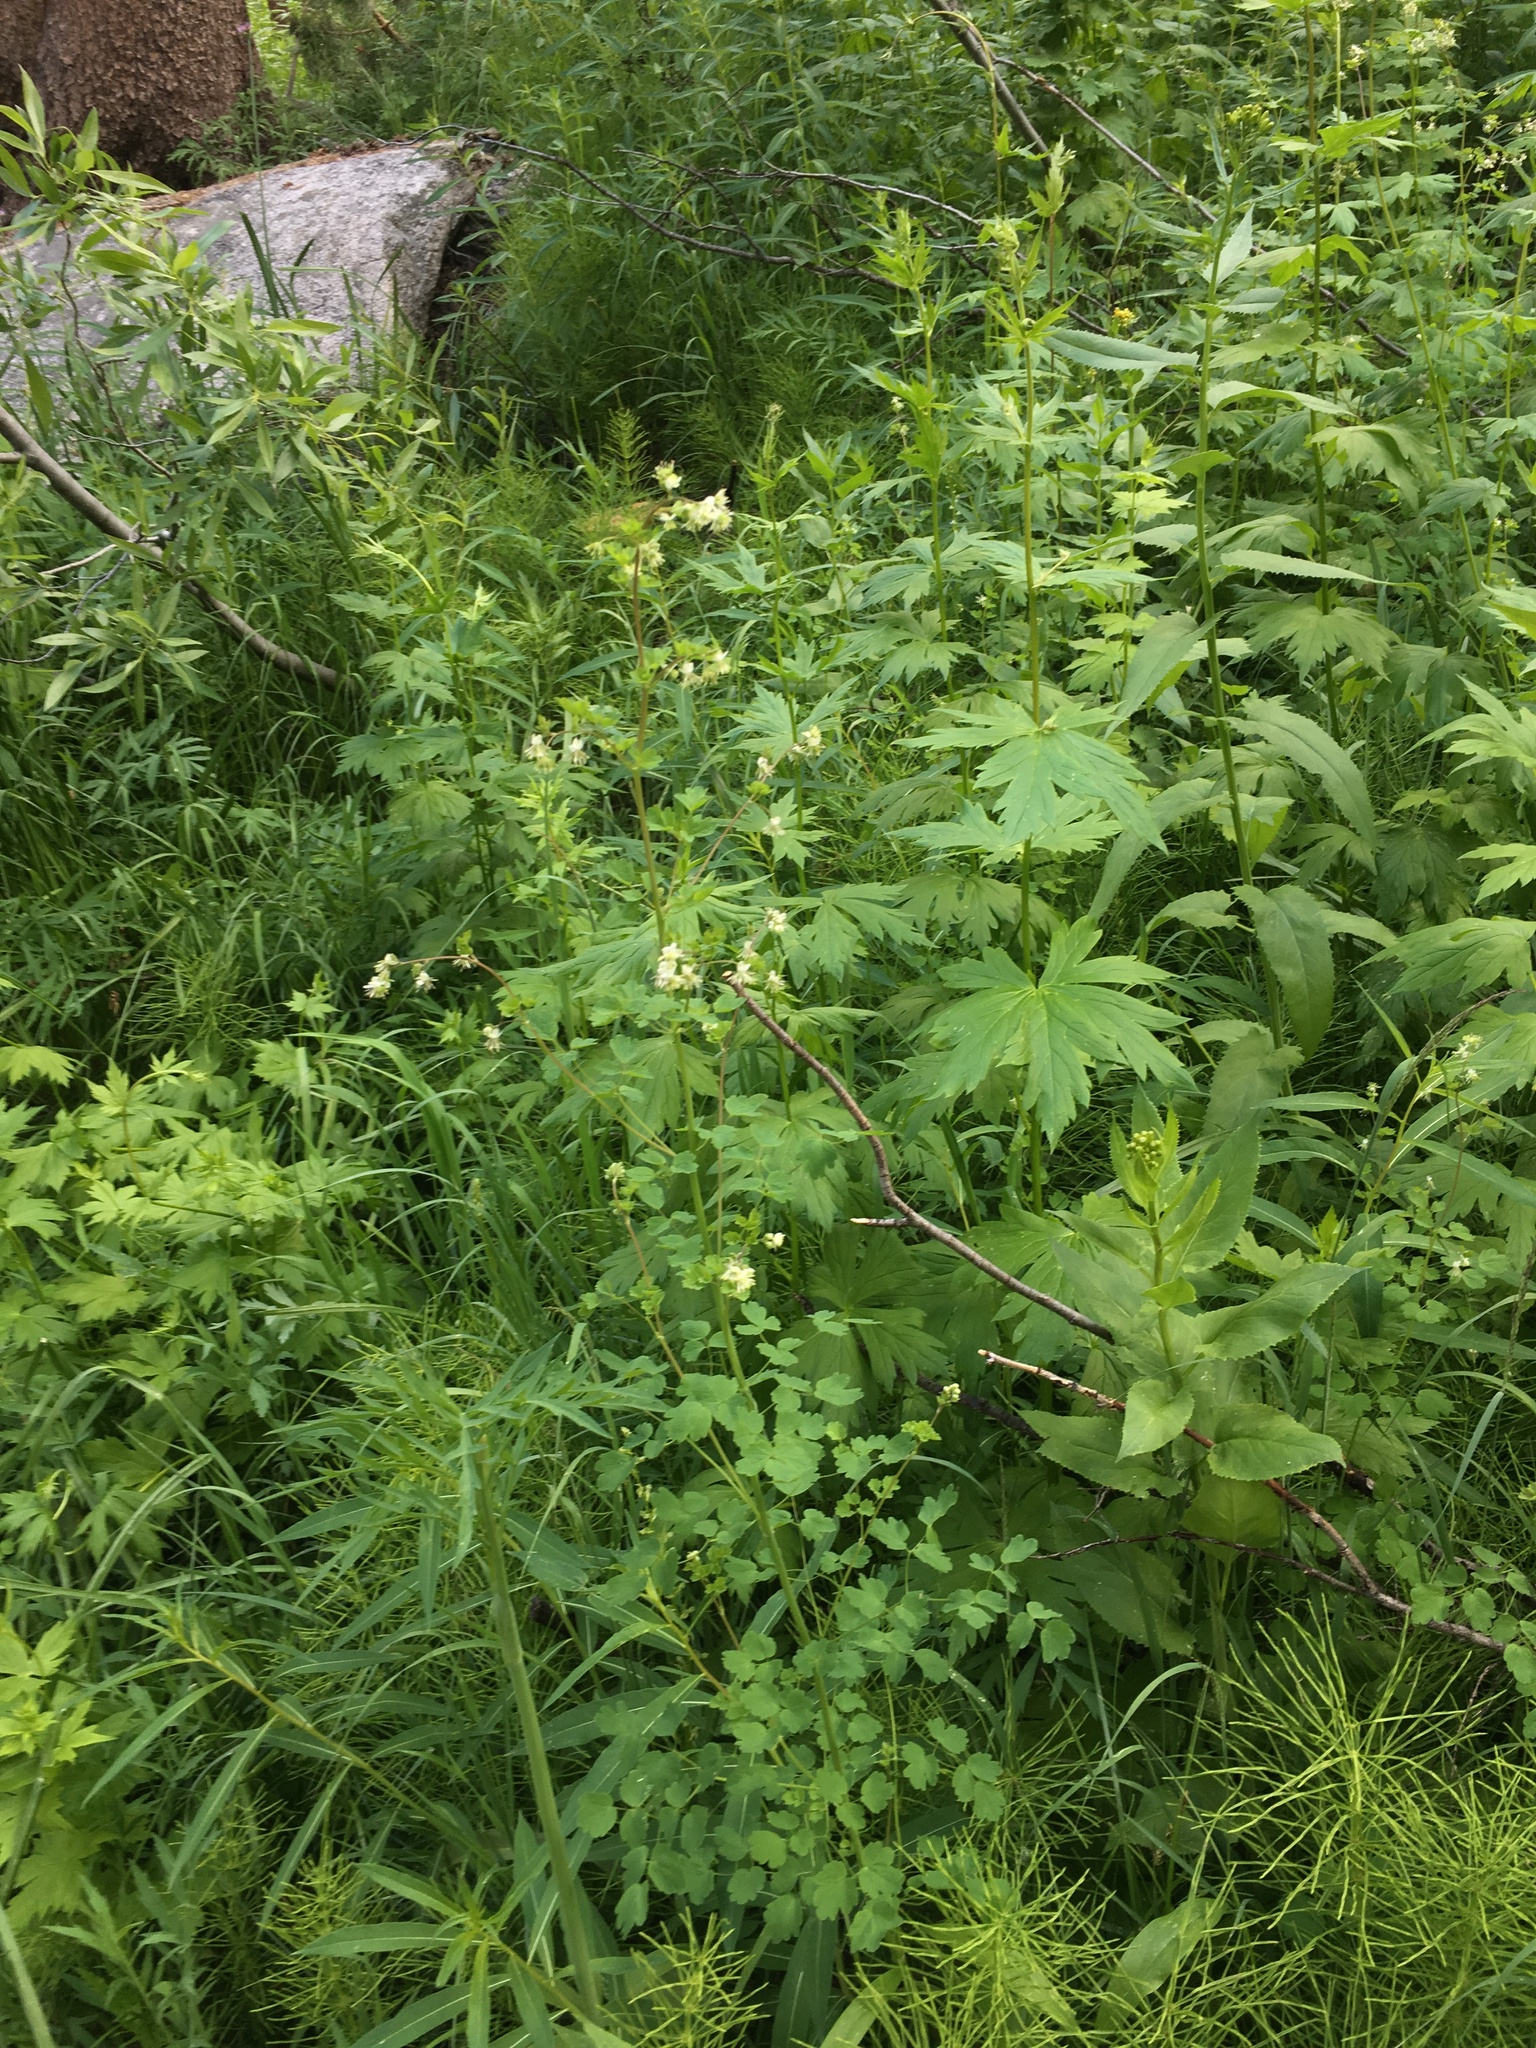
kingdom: Plantae
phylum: Tracheophyta
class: Magnoliopsida
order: Ranunculales
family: Ranunculaceae
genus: Thalictrum
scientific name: Thalictrum sparsiflorum
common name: Mountain meadow-rue
